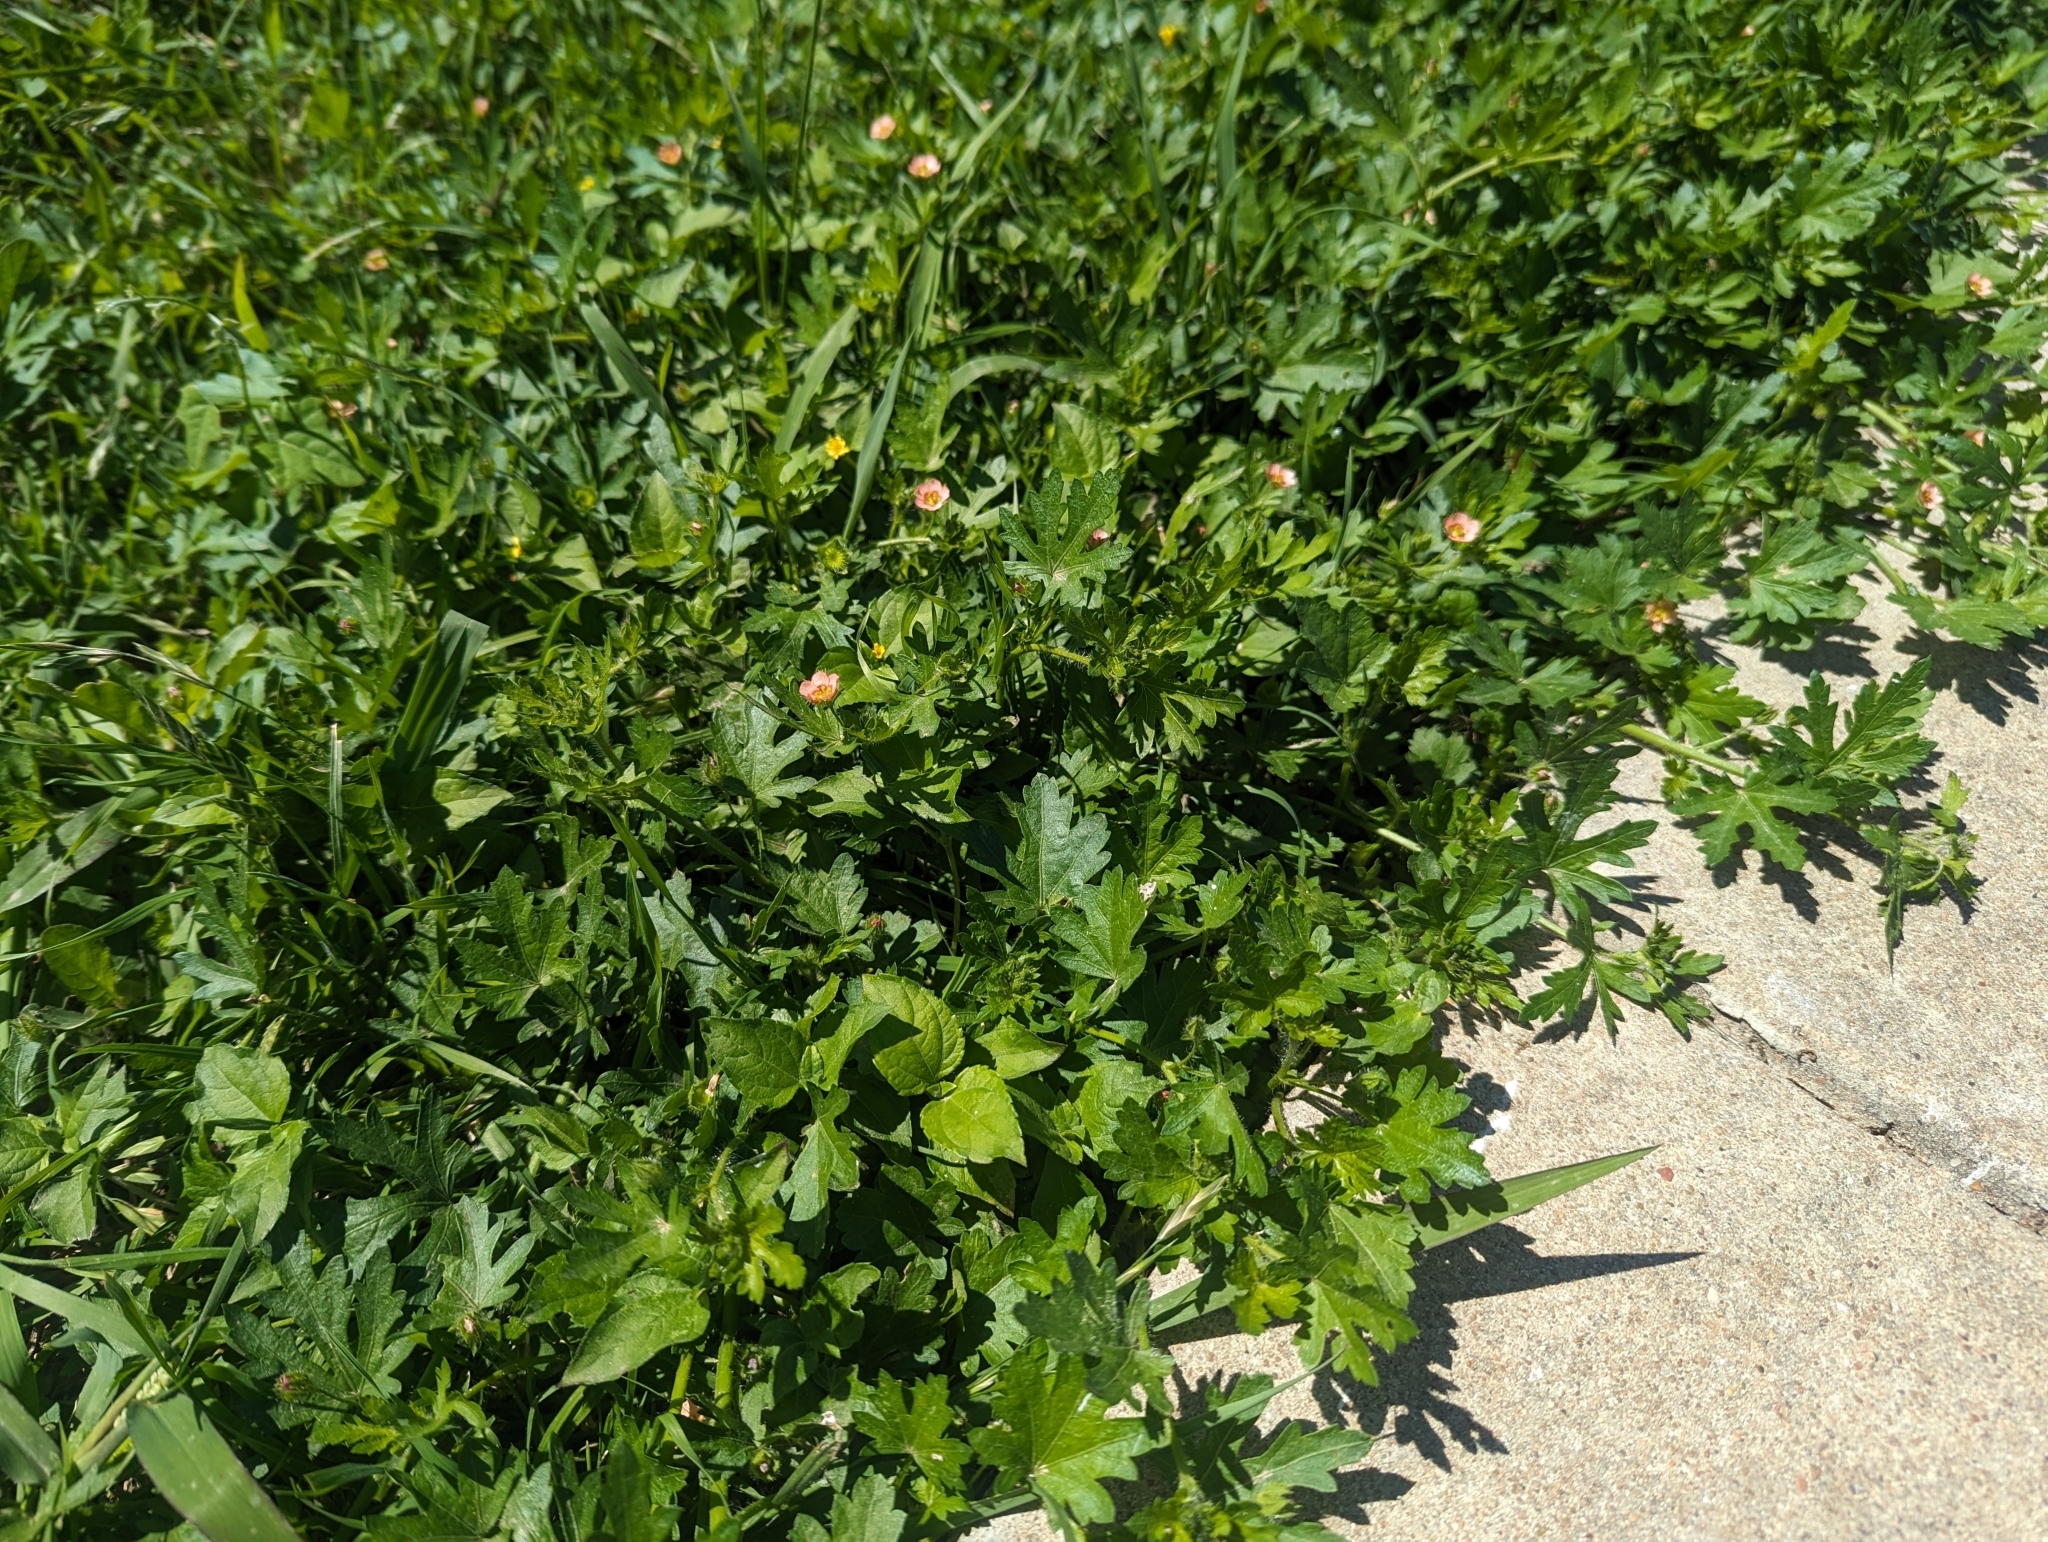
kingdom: Plantae
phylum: Tracheophyta
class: Magnoliopsida
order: Malvales
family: Malvaceae
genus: Modiola
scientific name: Modiola caroliniana
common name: Carolina bristlemallow
